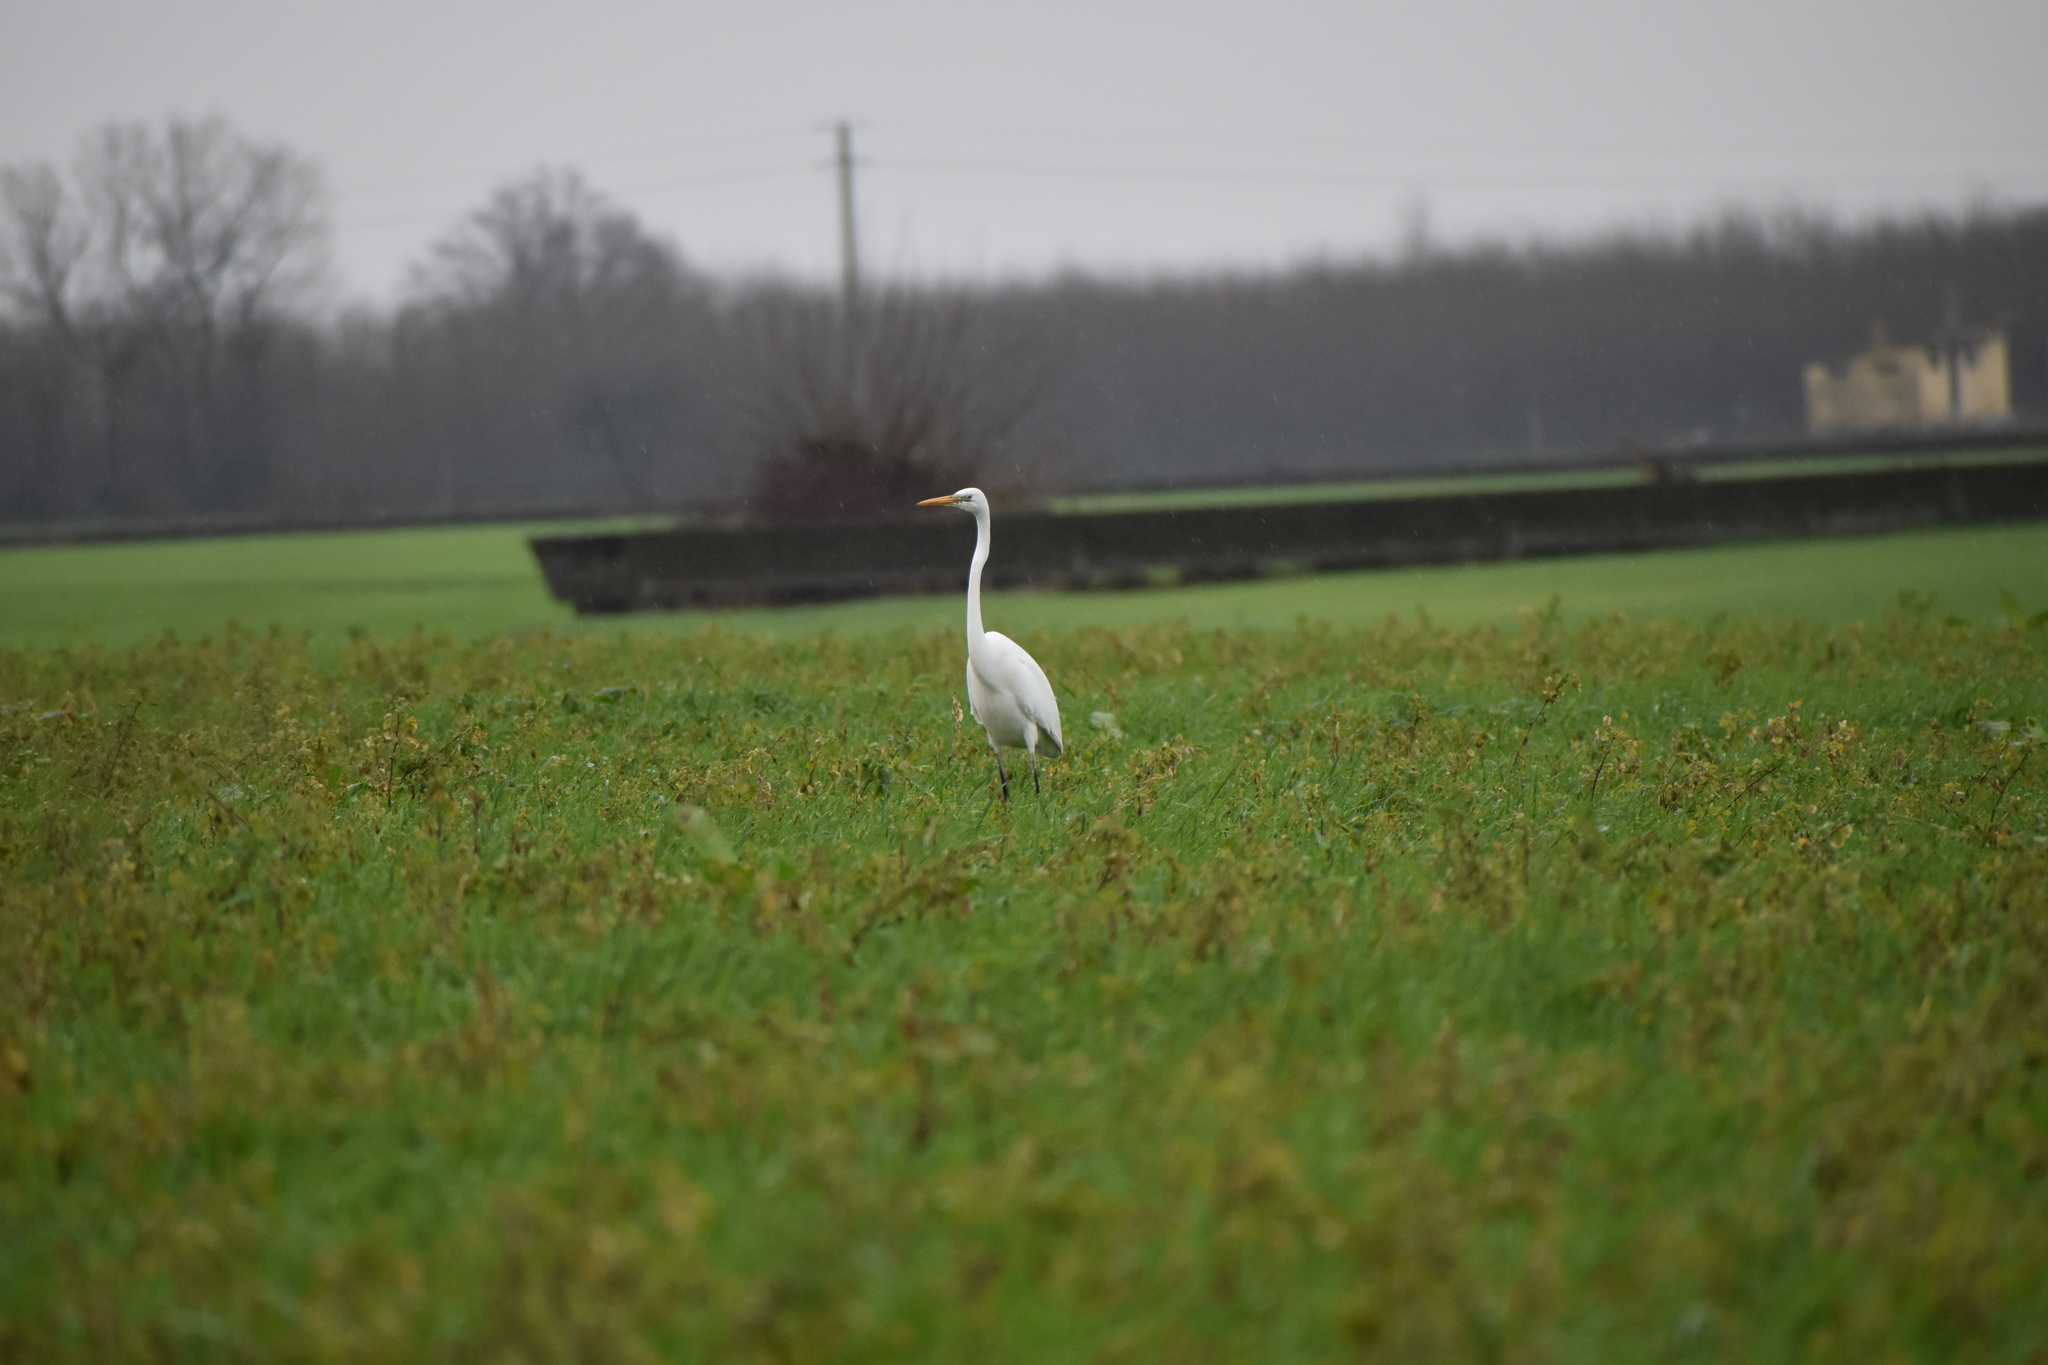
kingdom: Animalia
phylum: Chordata
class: Aves
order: Pelecaniformes
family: Ardeidae
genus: Ardea
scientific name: Ardea alba
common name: Great egret
